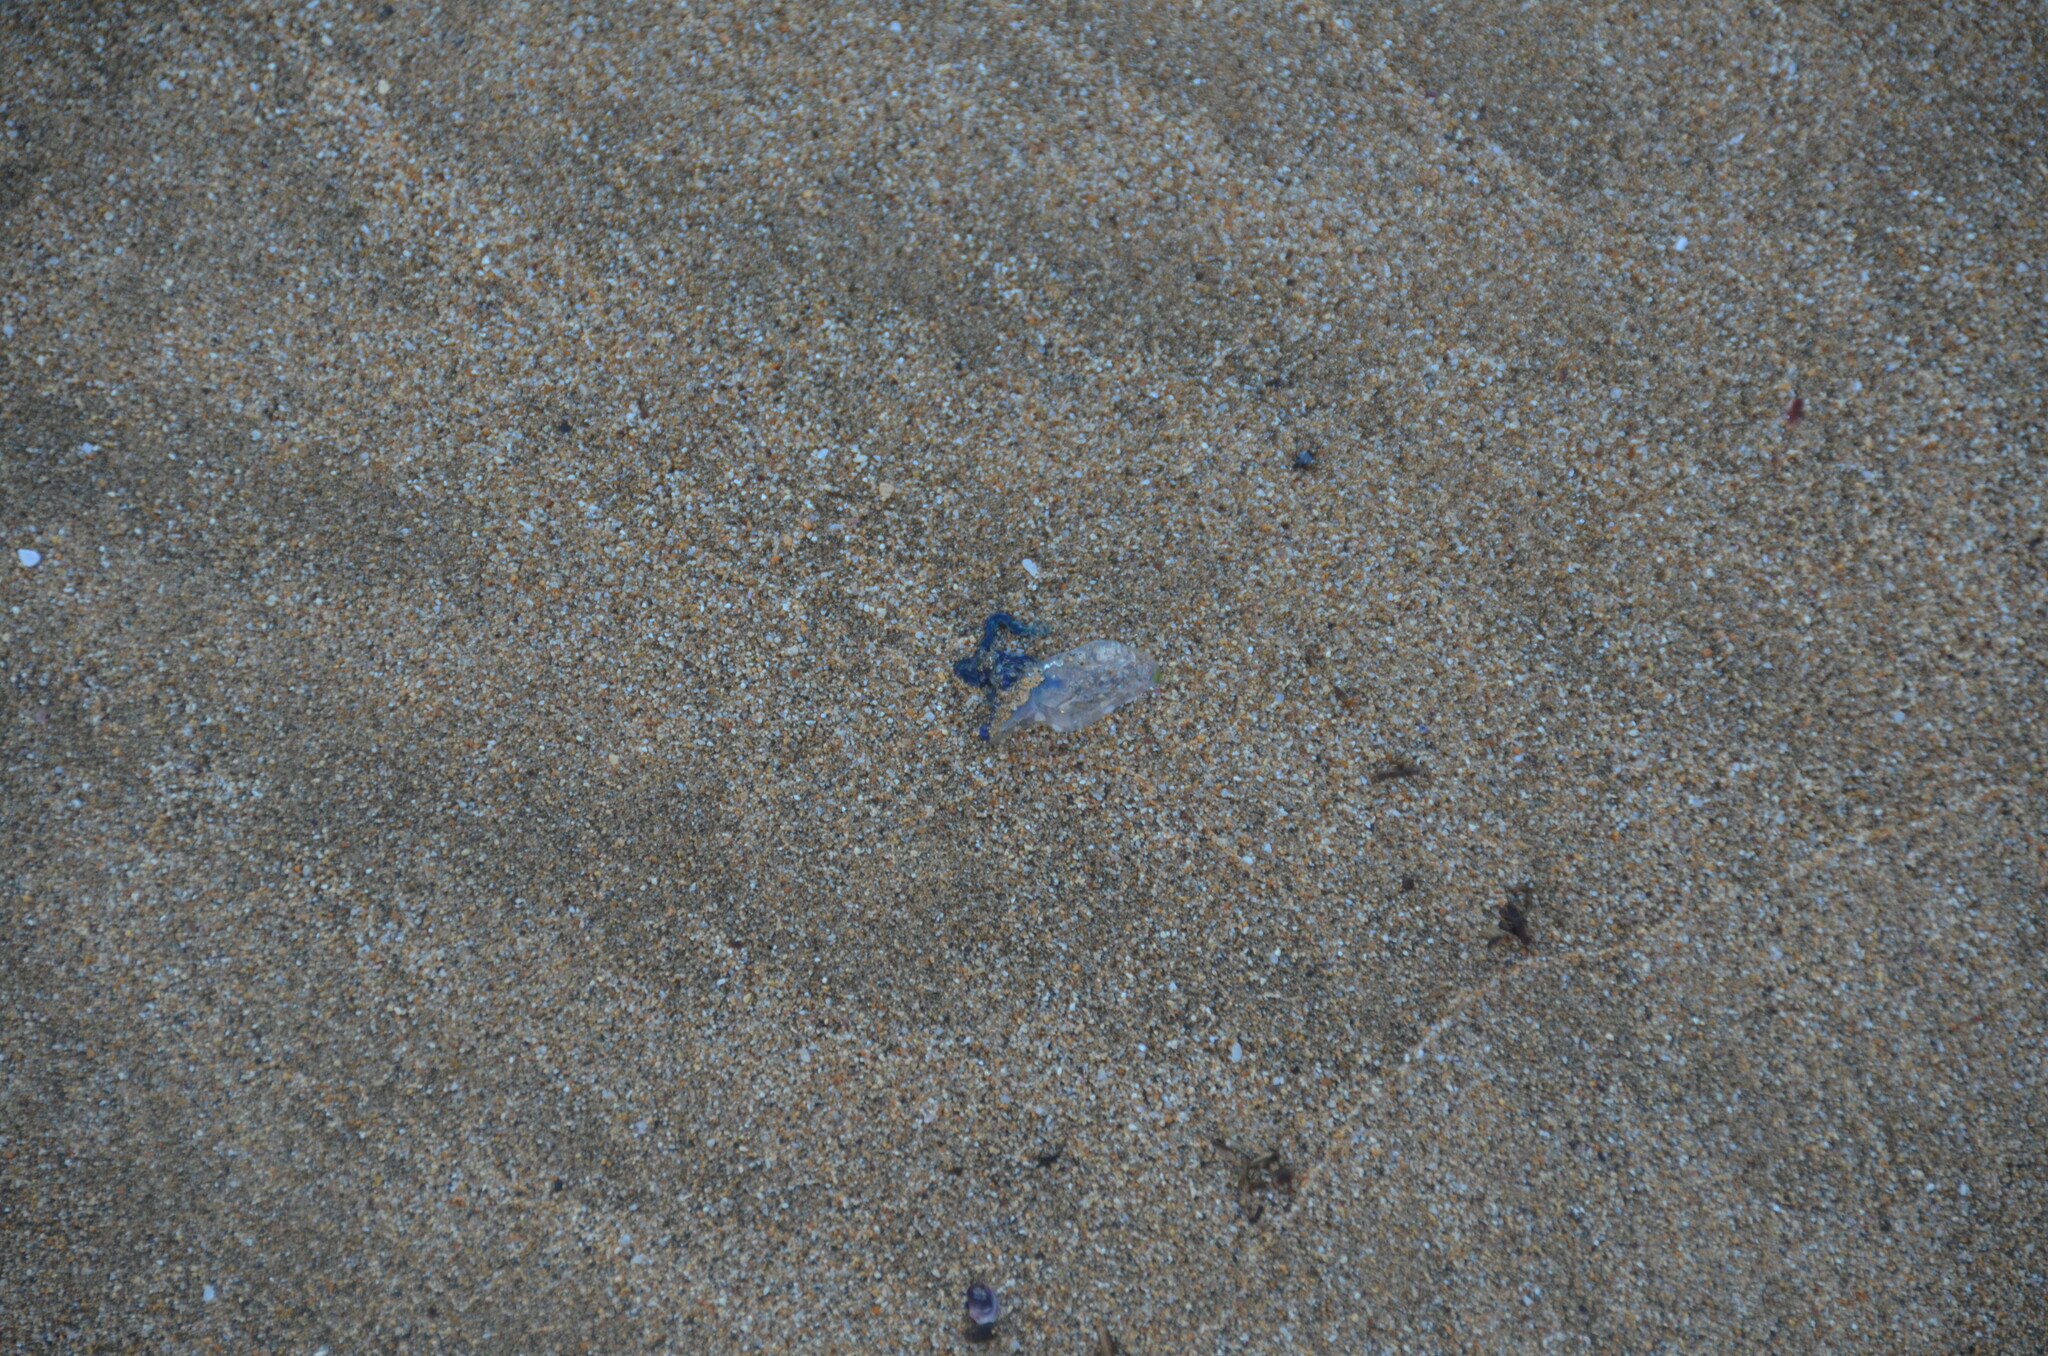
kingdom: Animalia
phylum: Cnidaria
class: Hydrozoa
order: Siphonophorae
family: Physaliidae
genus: Physalia
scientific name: Physalia physalis
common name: Portuguese man-of-war
